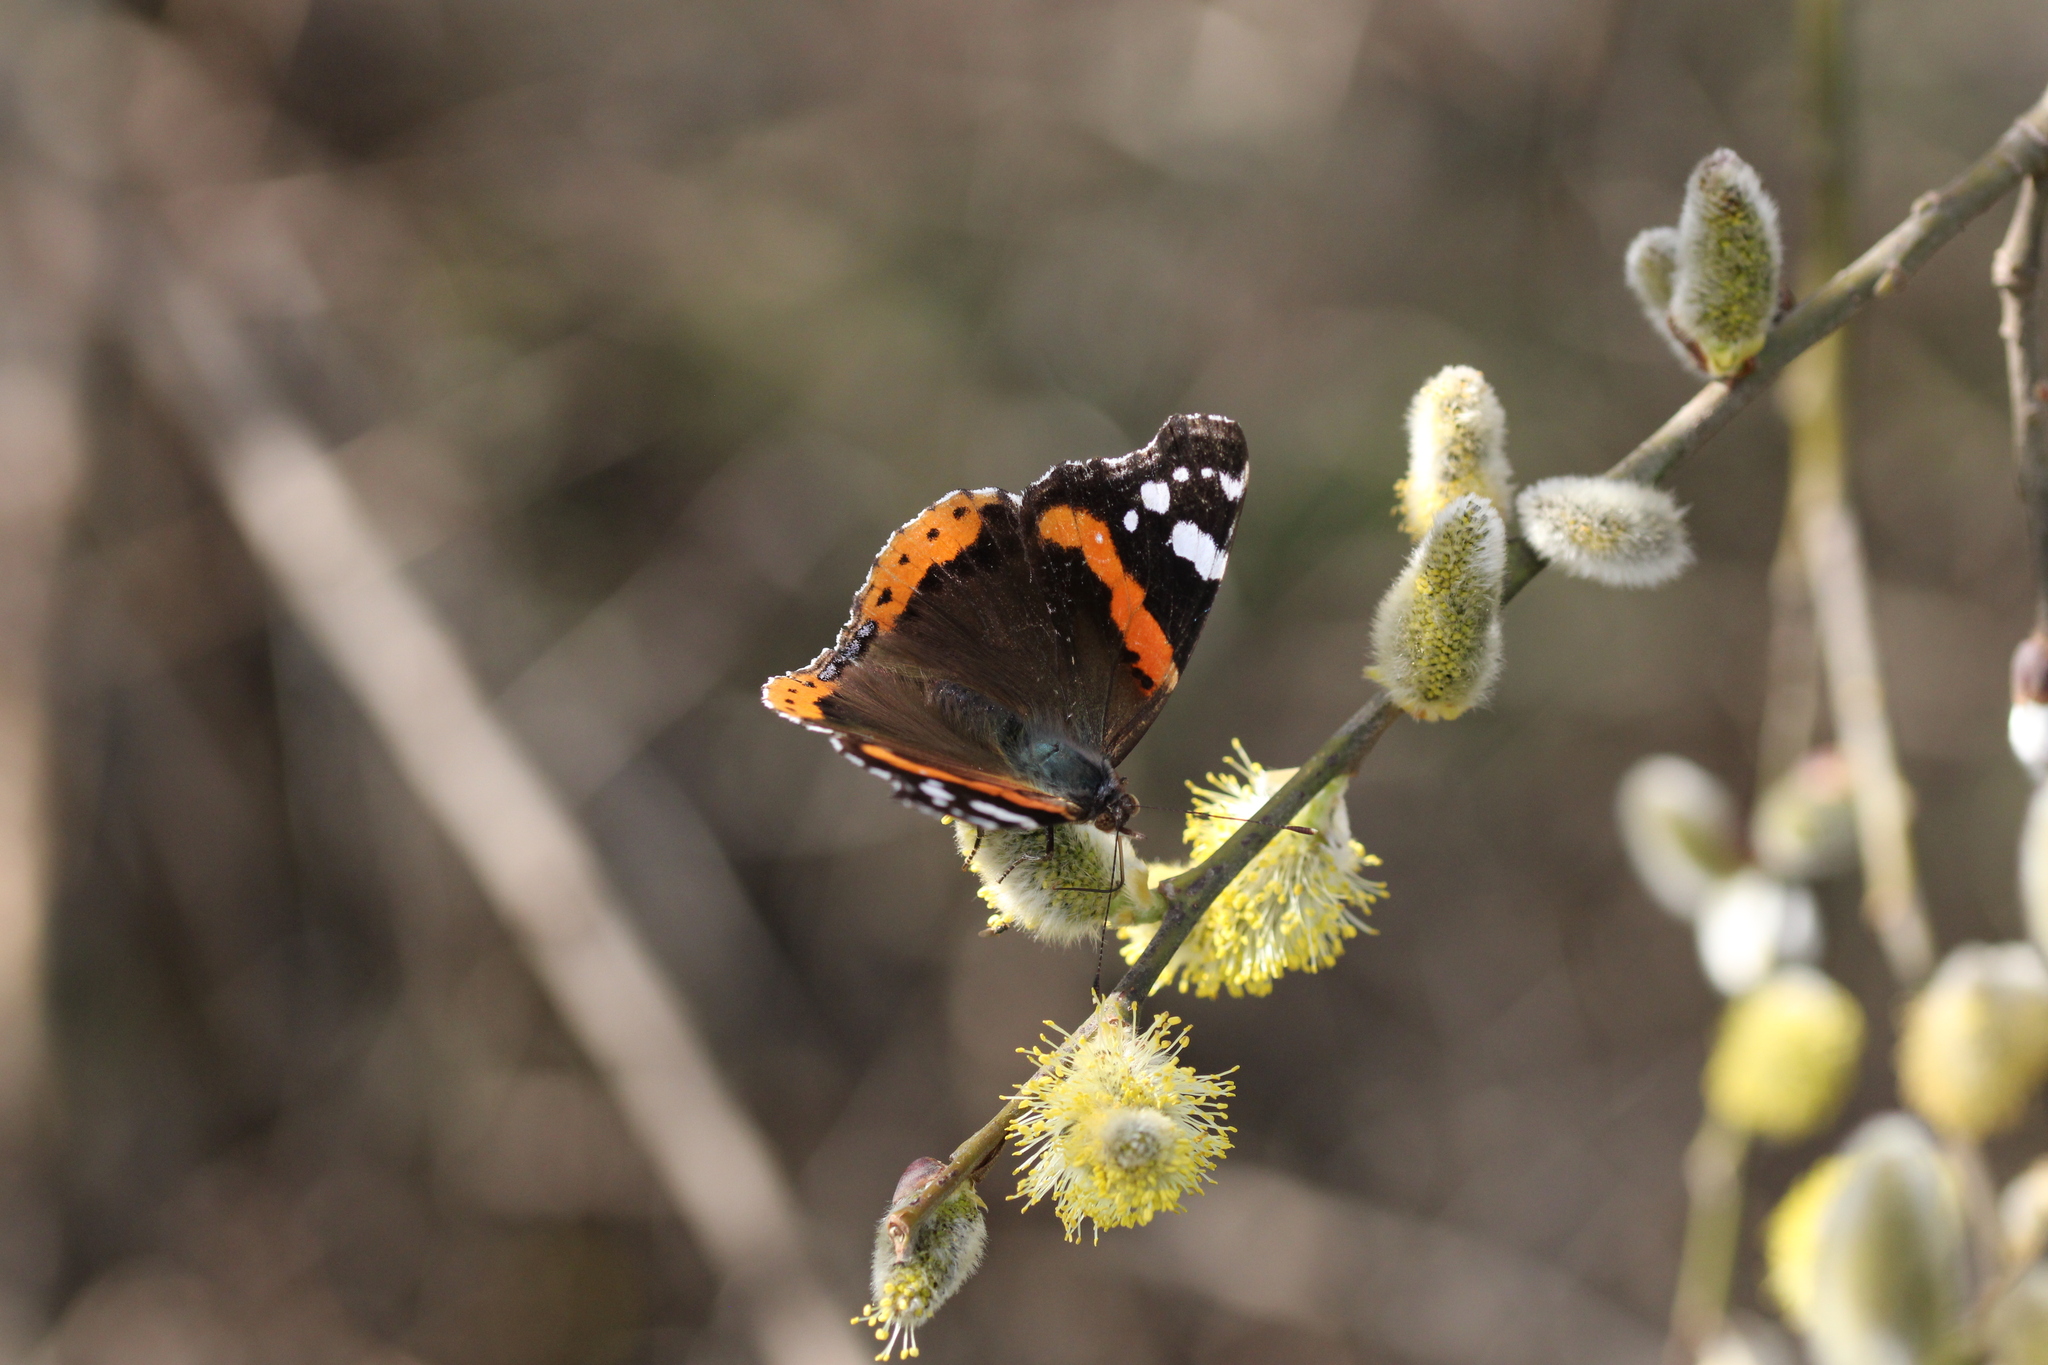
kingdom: Animalia
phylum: Arthropoda
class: Insecta
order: Lepidoptera
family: Nymphalidae
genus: Vanessa
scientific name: Vanessa atalanta
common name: Red admiral
